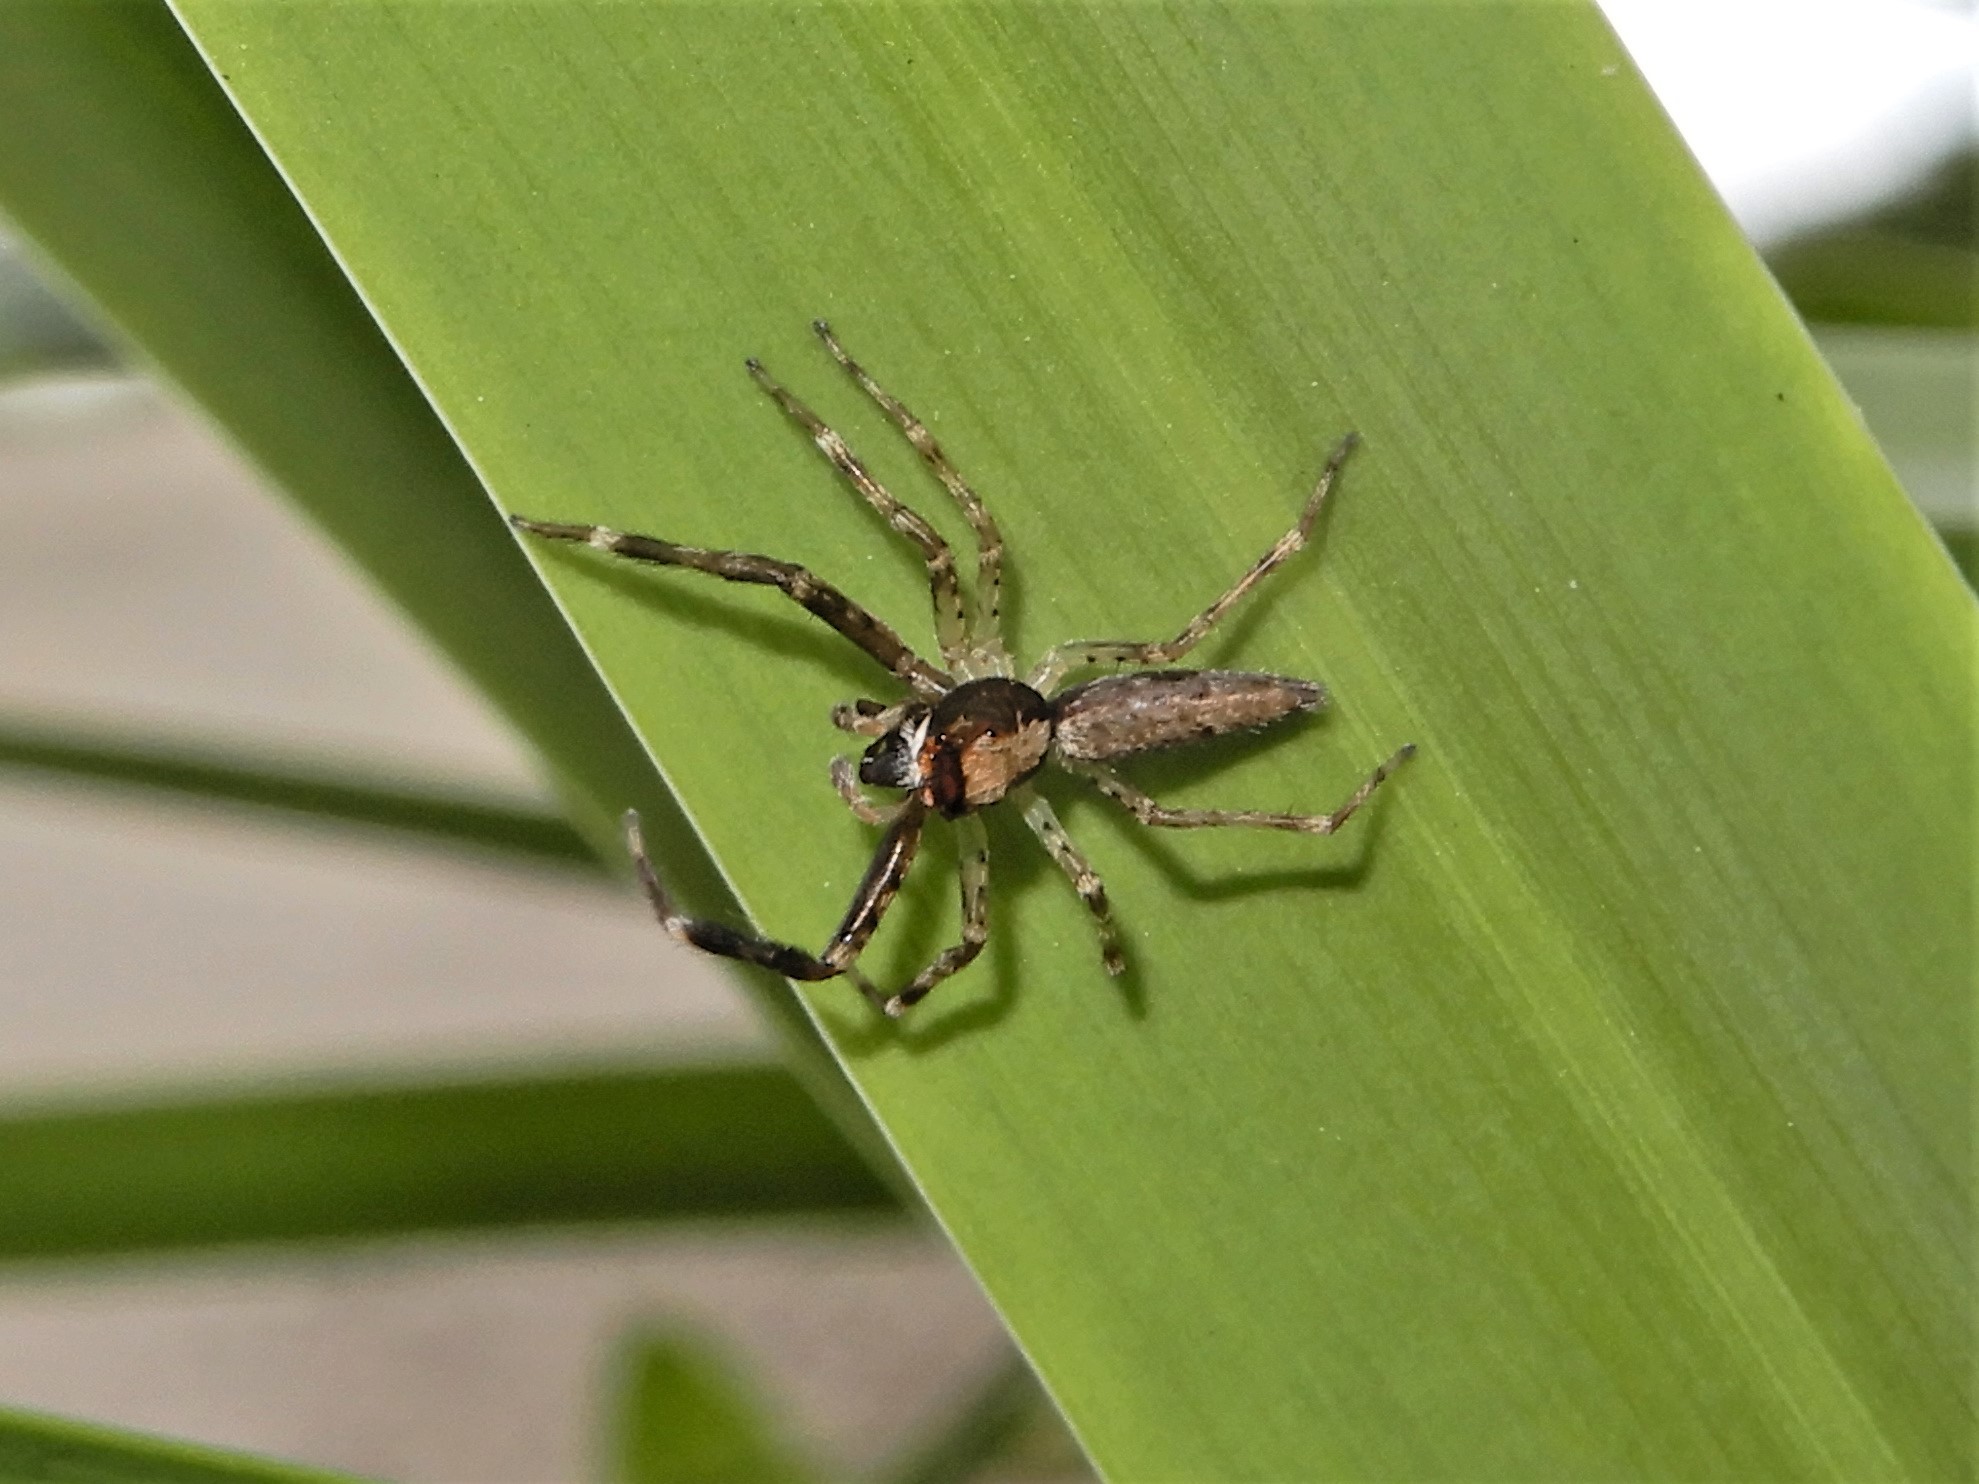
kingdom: Animalia
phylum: Arthropoda
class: Arachnida
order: Araneae
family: Salticidae
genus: Helpis
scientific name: Helpis minitabunda
